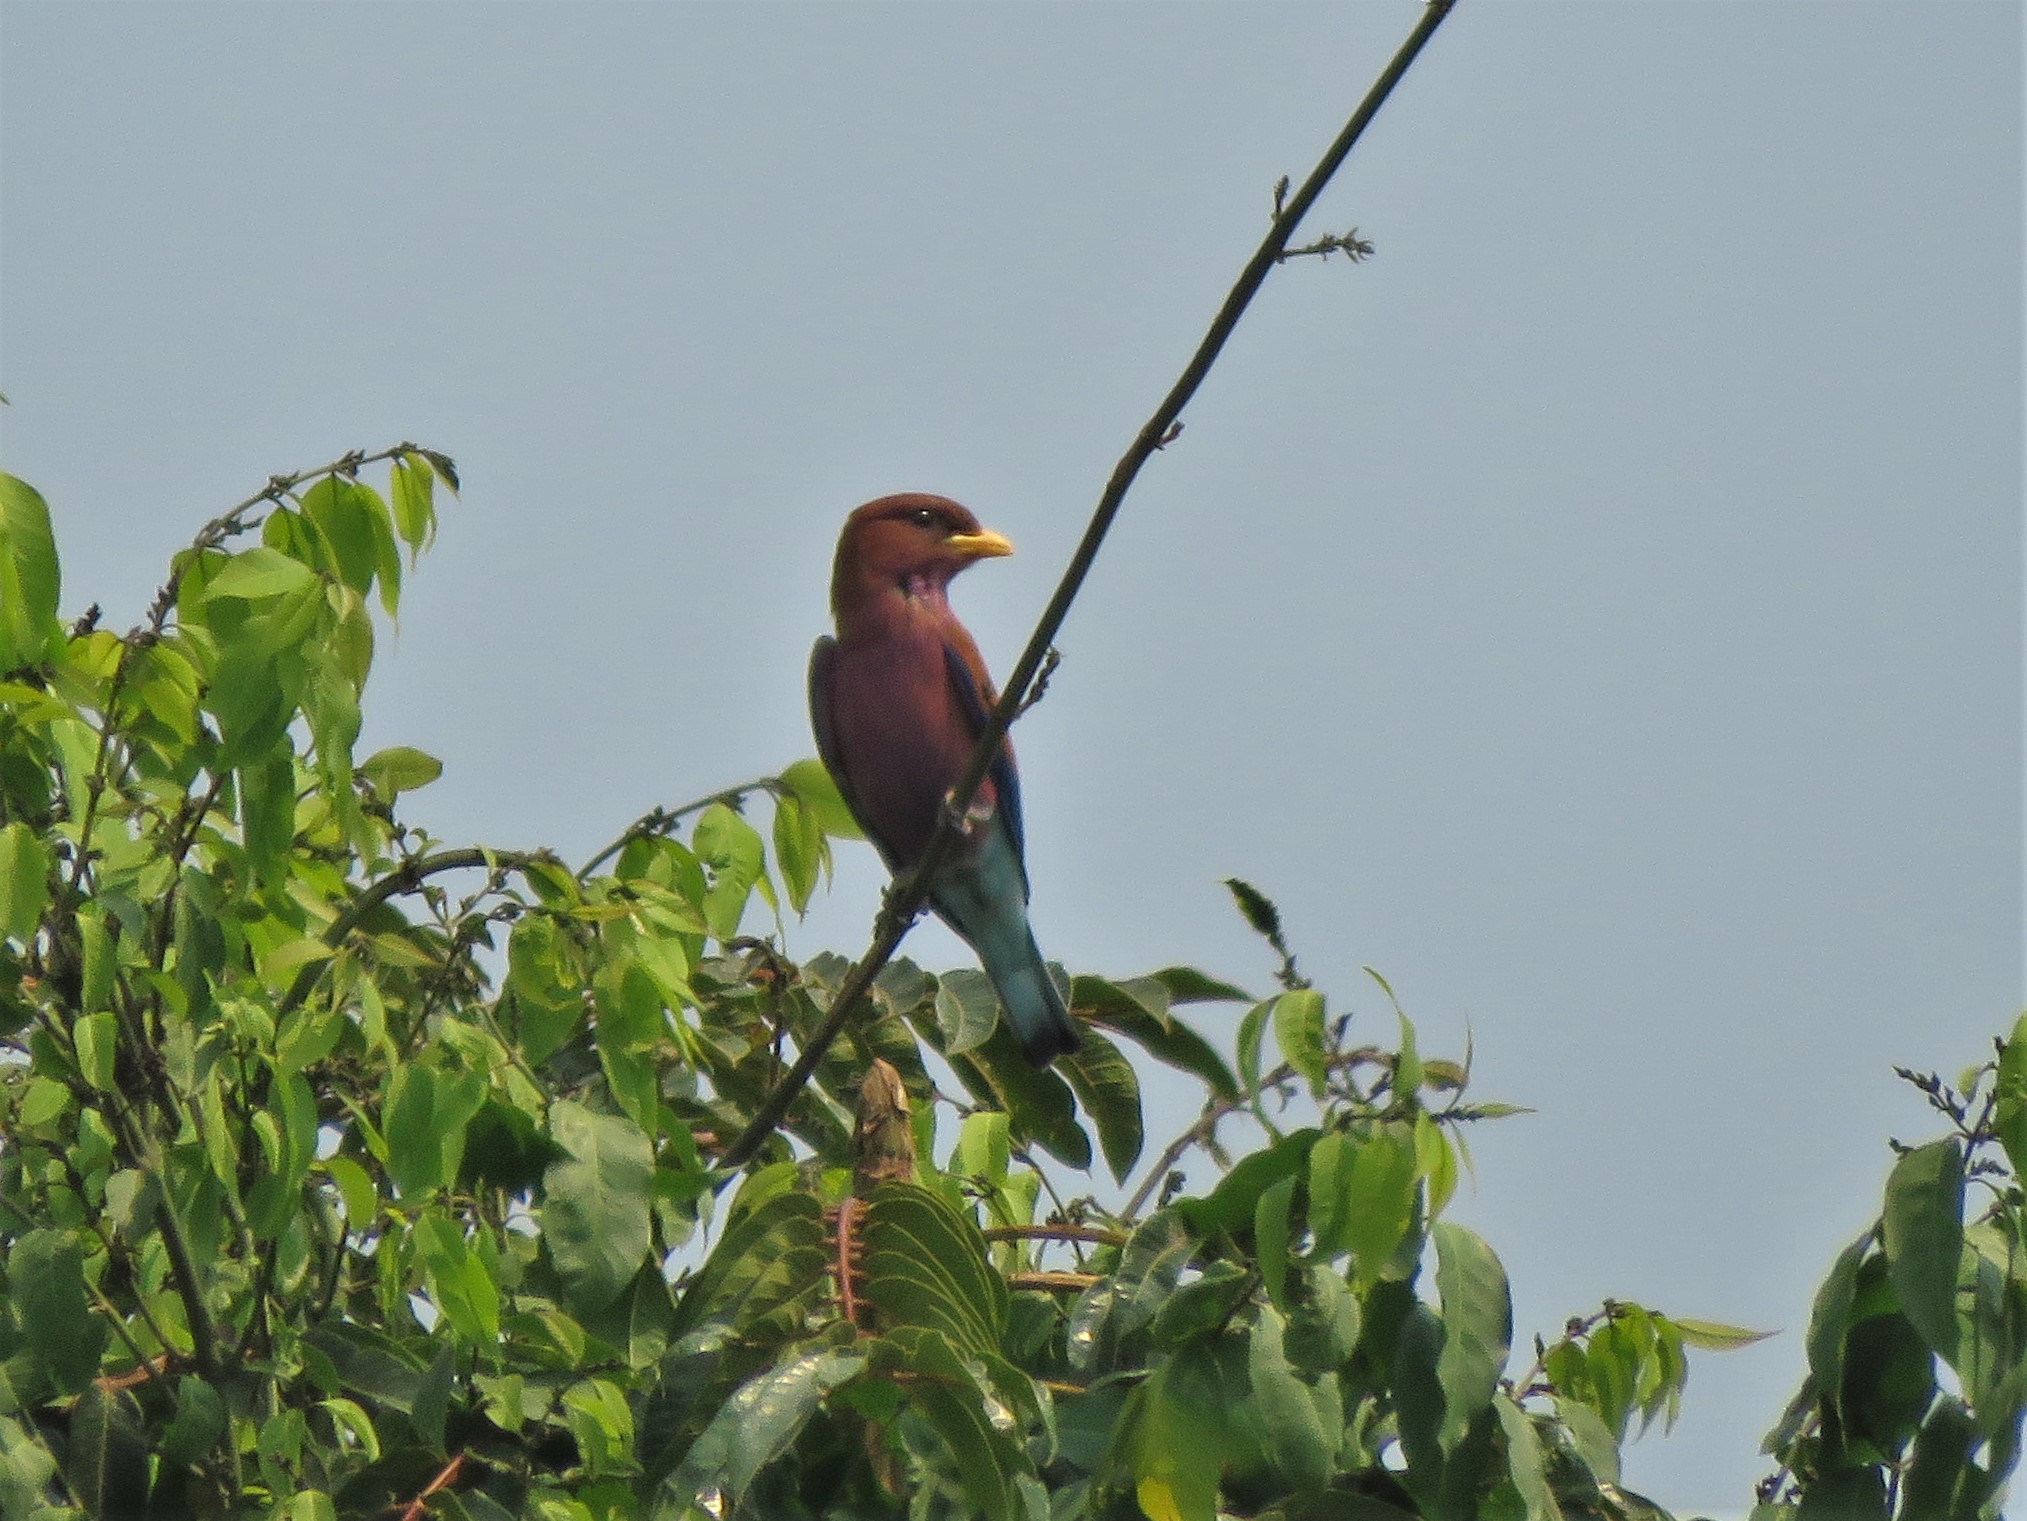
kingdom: Animalia
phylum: Chordata
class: Aves
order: Coraciiformes
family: Coraciidae
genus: Eurystomus
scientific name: Eurystomus glaucurus
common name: Broad-billed roller
